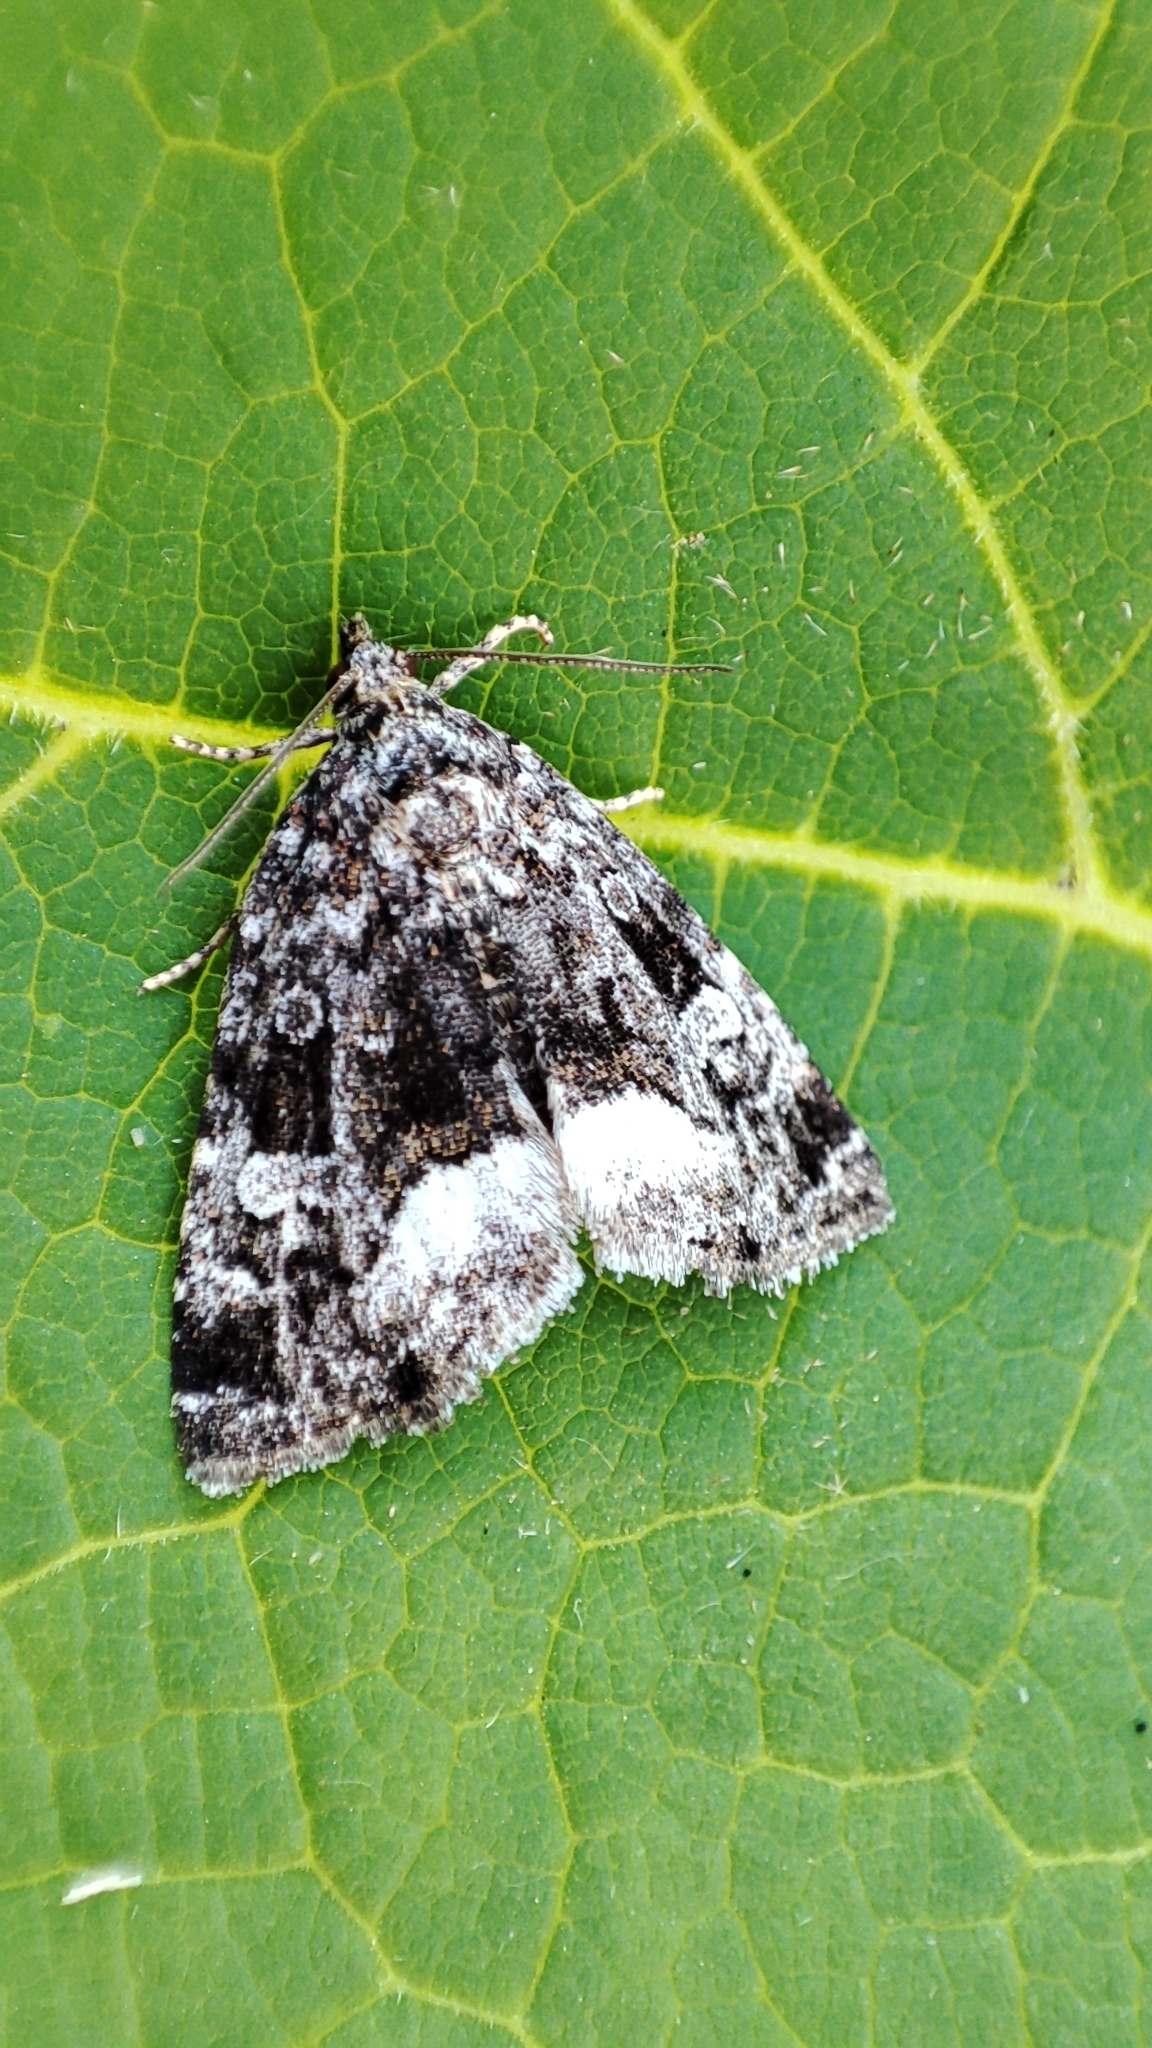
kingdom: Animalia
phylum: Arthropoda
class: Insecta
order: Lepidoptera
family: Noctuidae
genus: Deltote
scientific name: Deltote pygarga
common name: Marbled white spot
